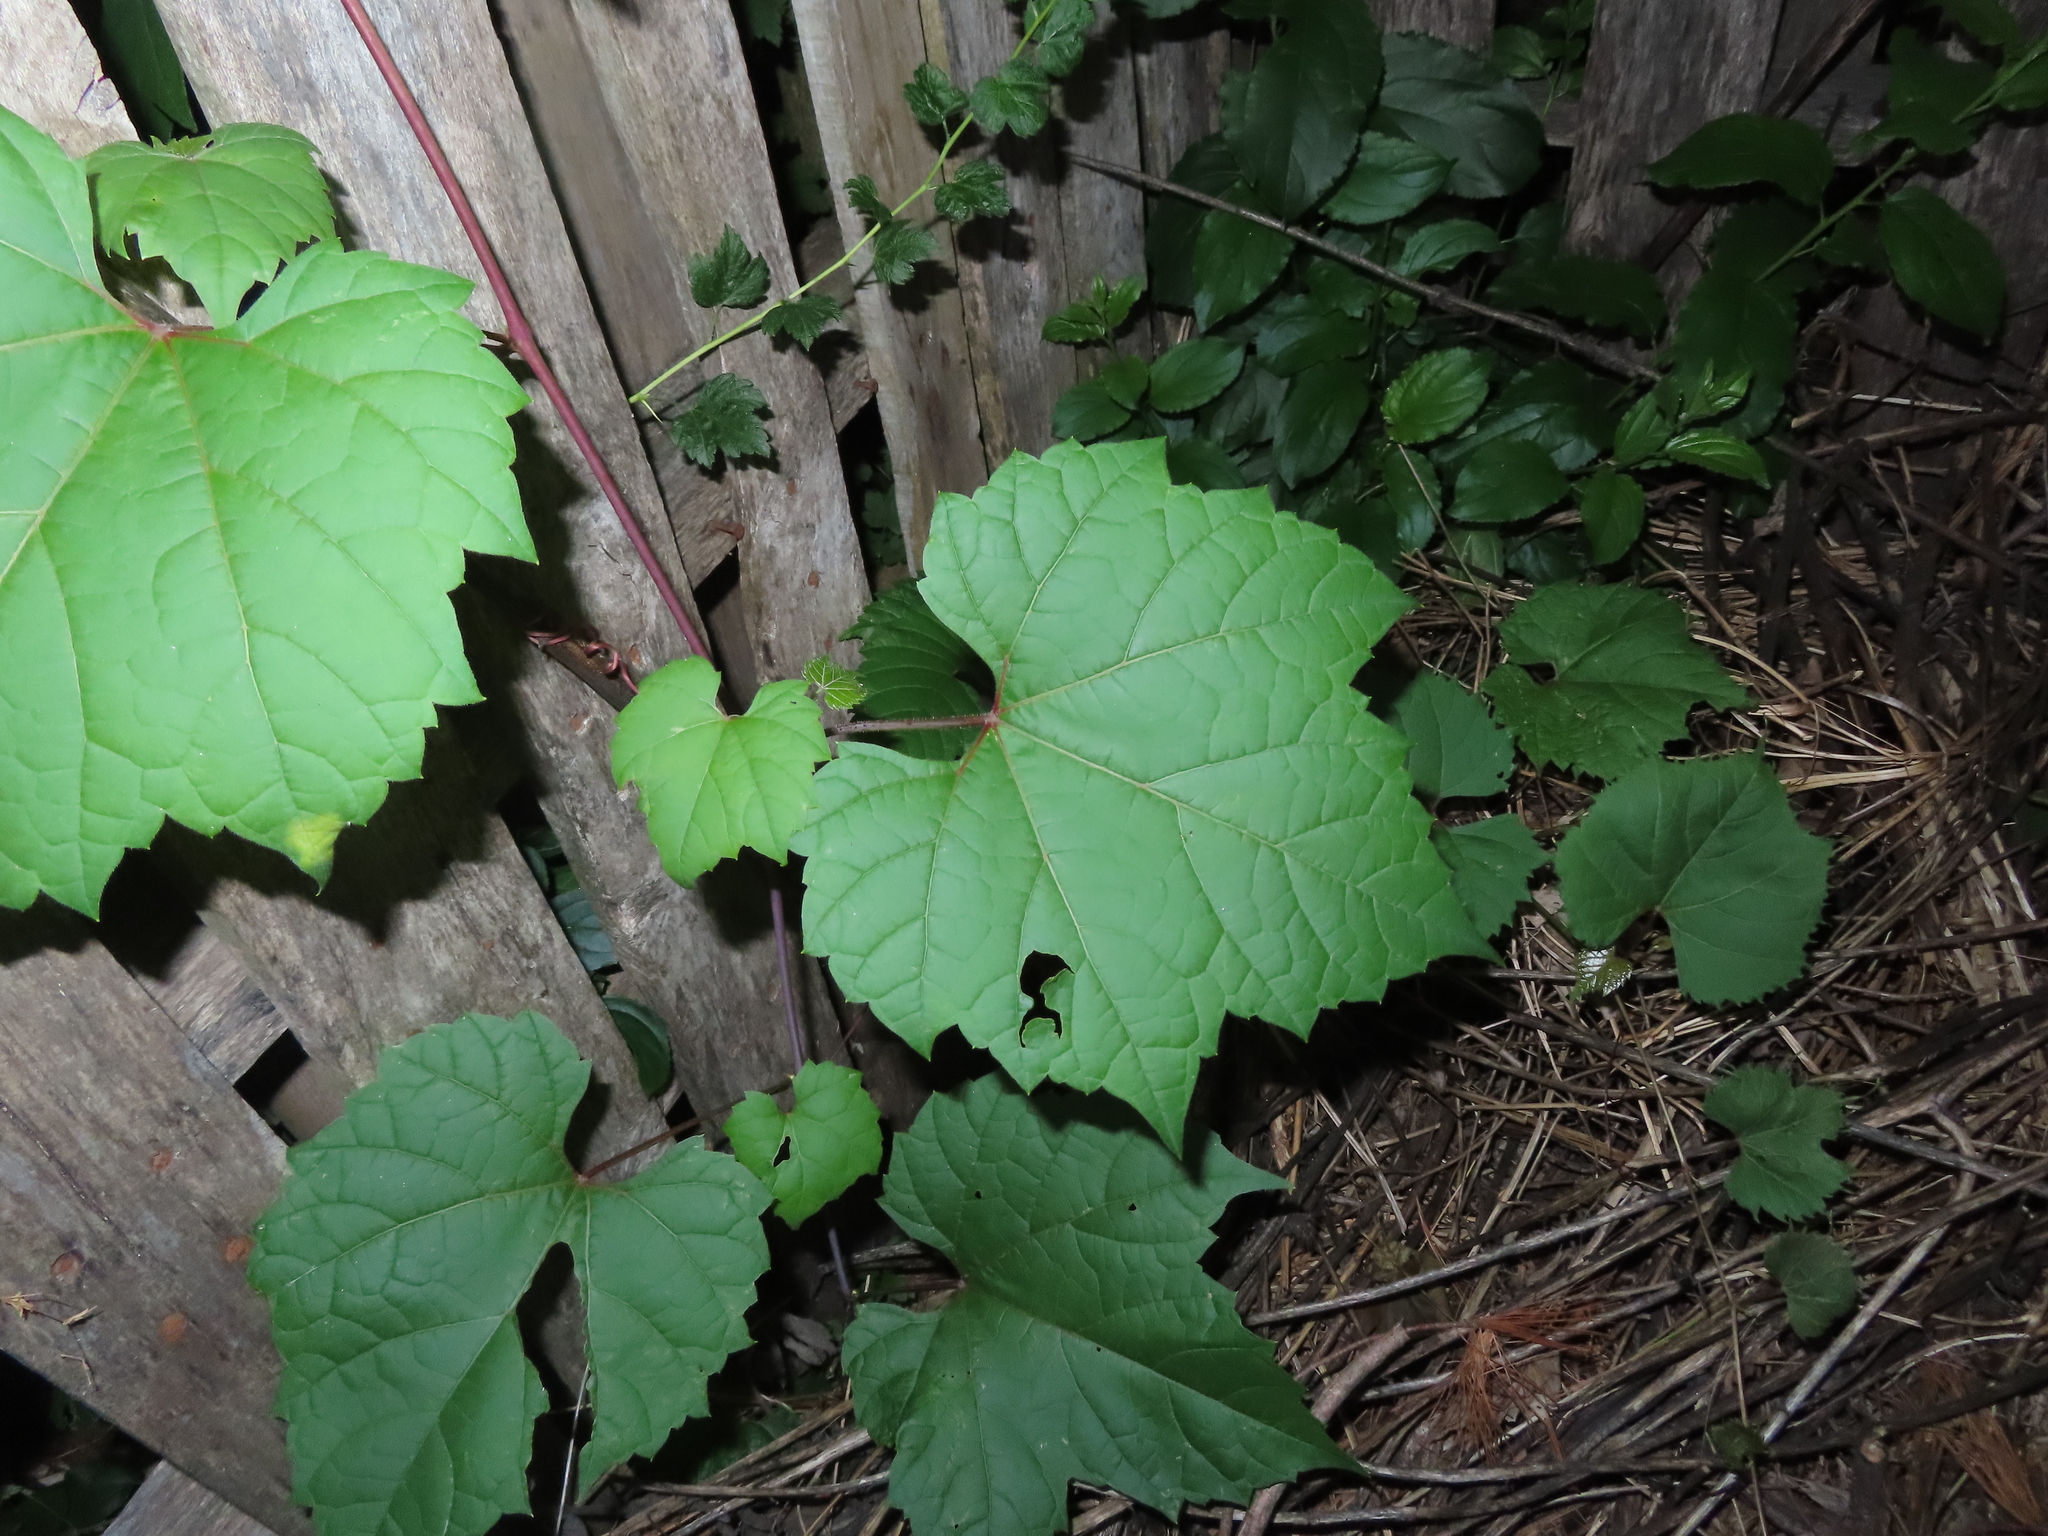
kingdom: Plantae
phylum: Tracheophyta
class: Magnoliopsida
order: Vitales
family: Vitaceae
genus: Vitis
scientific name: Vitis riparia
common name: Frost grape
